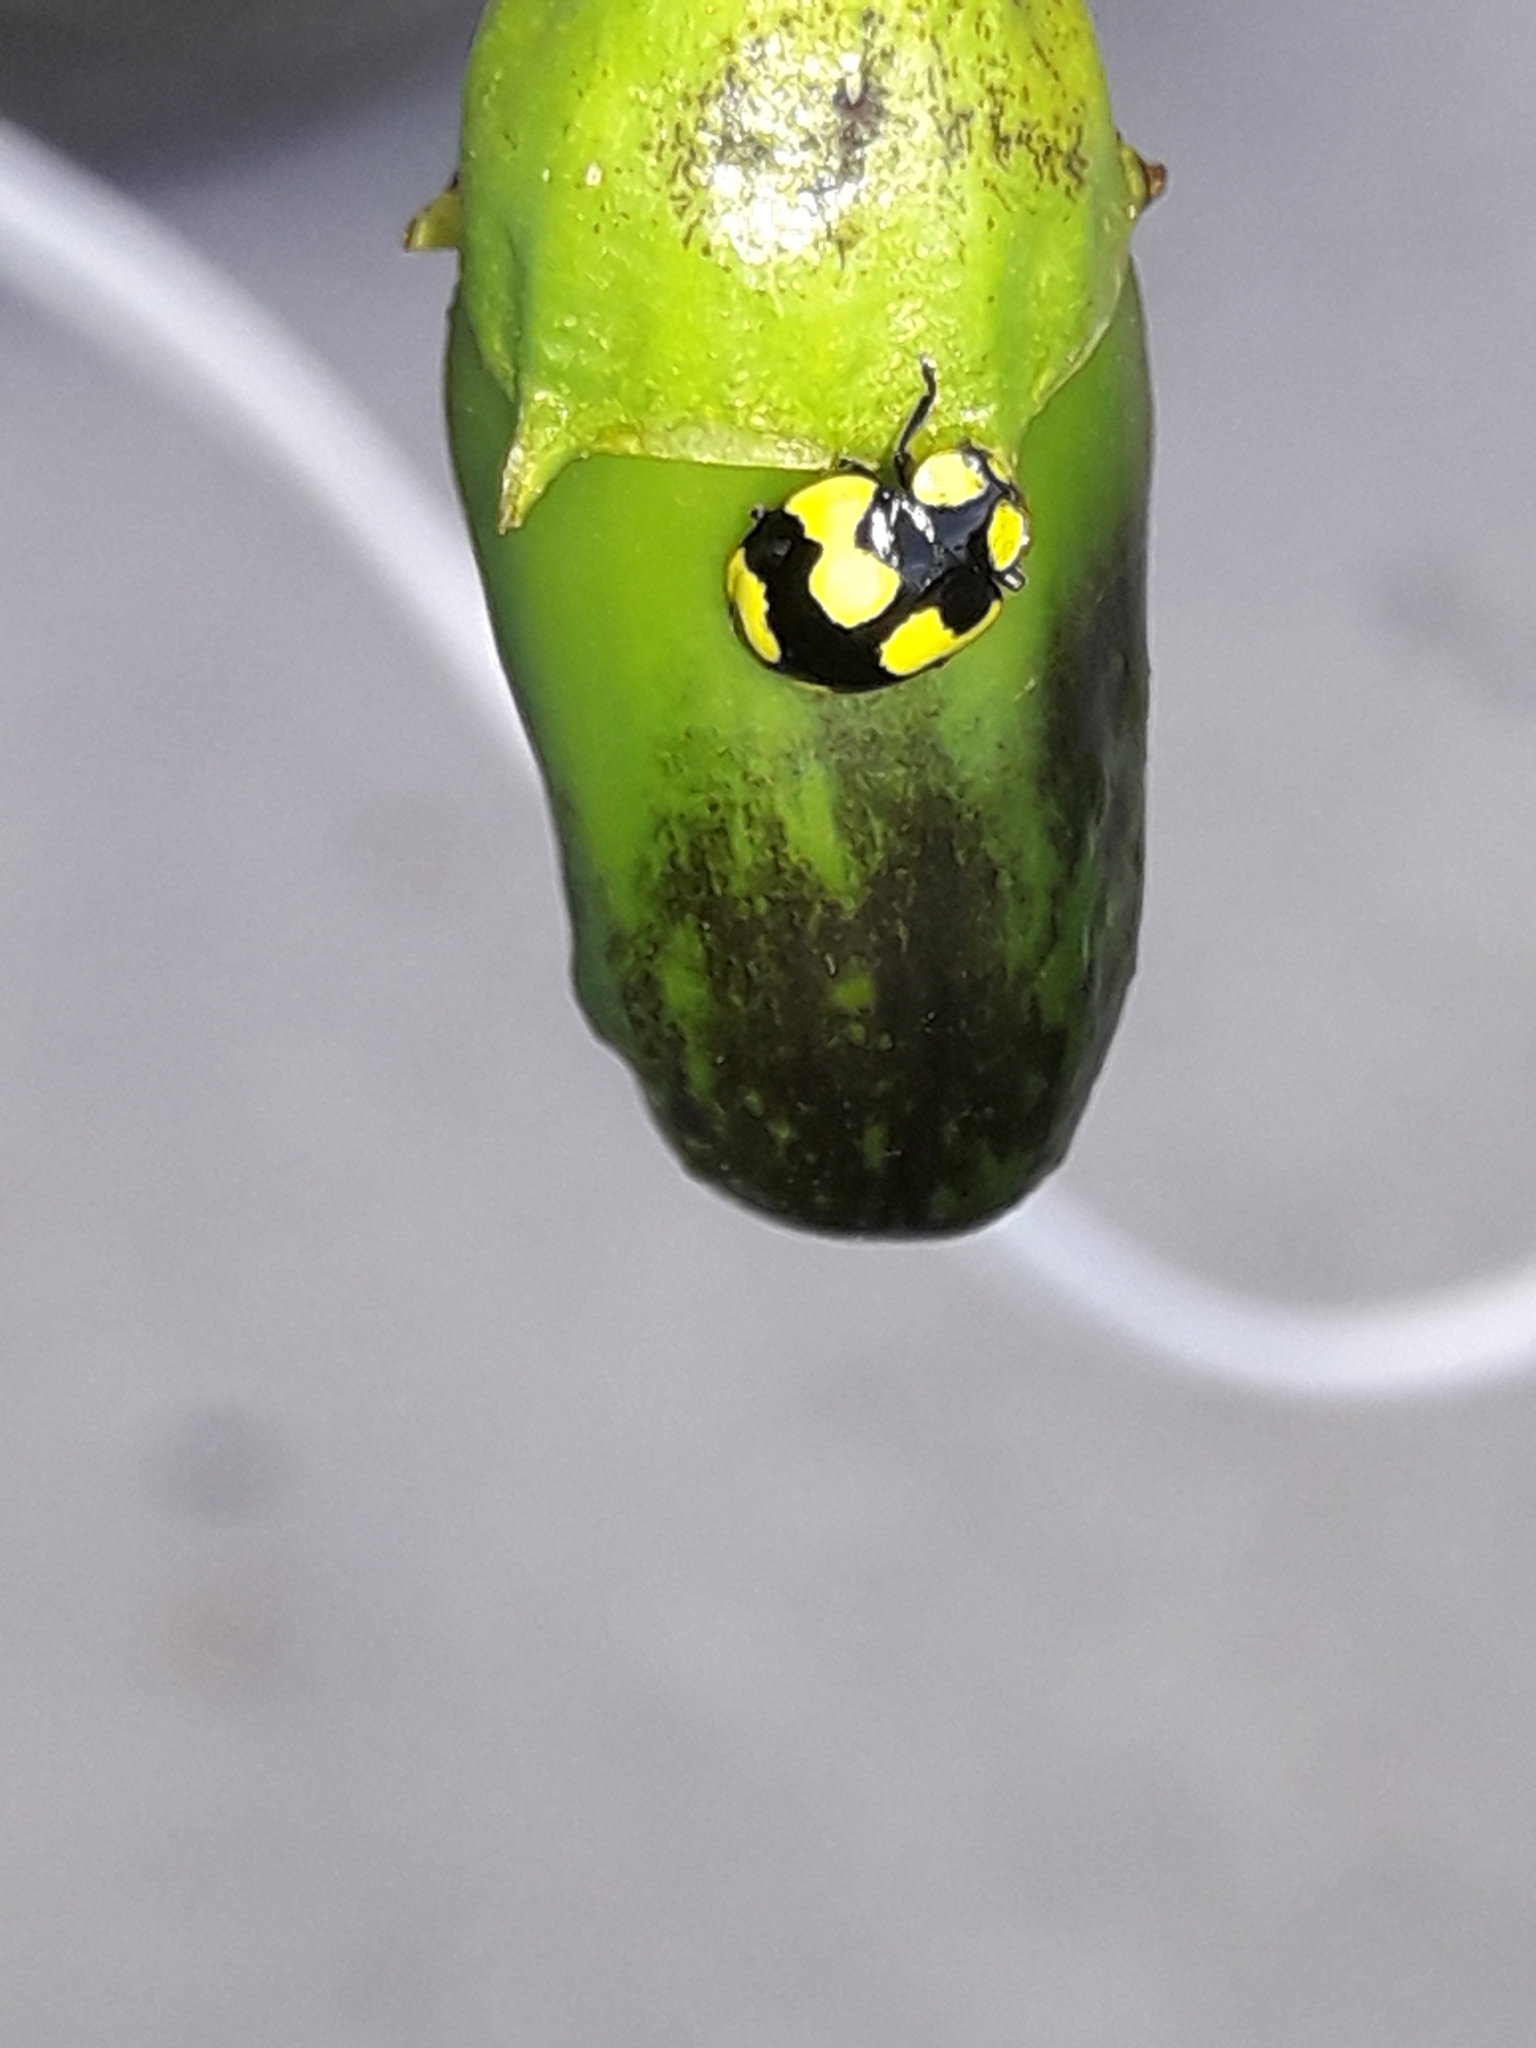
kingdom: Animalia
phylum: Arthropoda
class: Insecta
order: Coleoptera
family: Coccinellidae
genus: Illeis
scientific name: Illeis galbula
